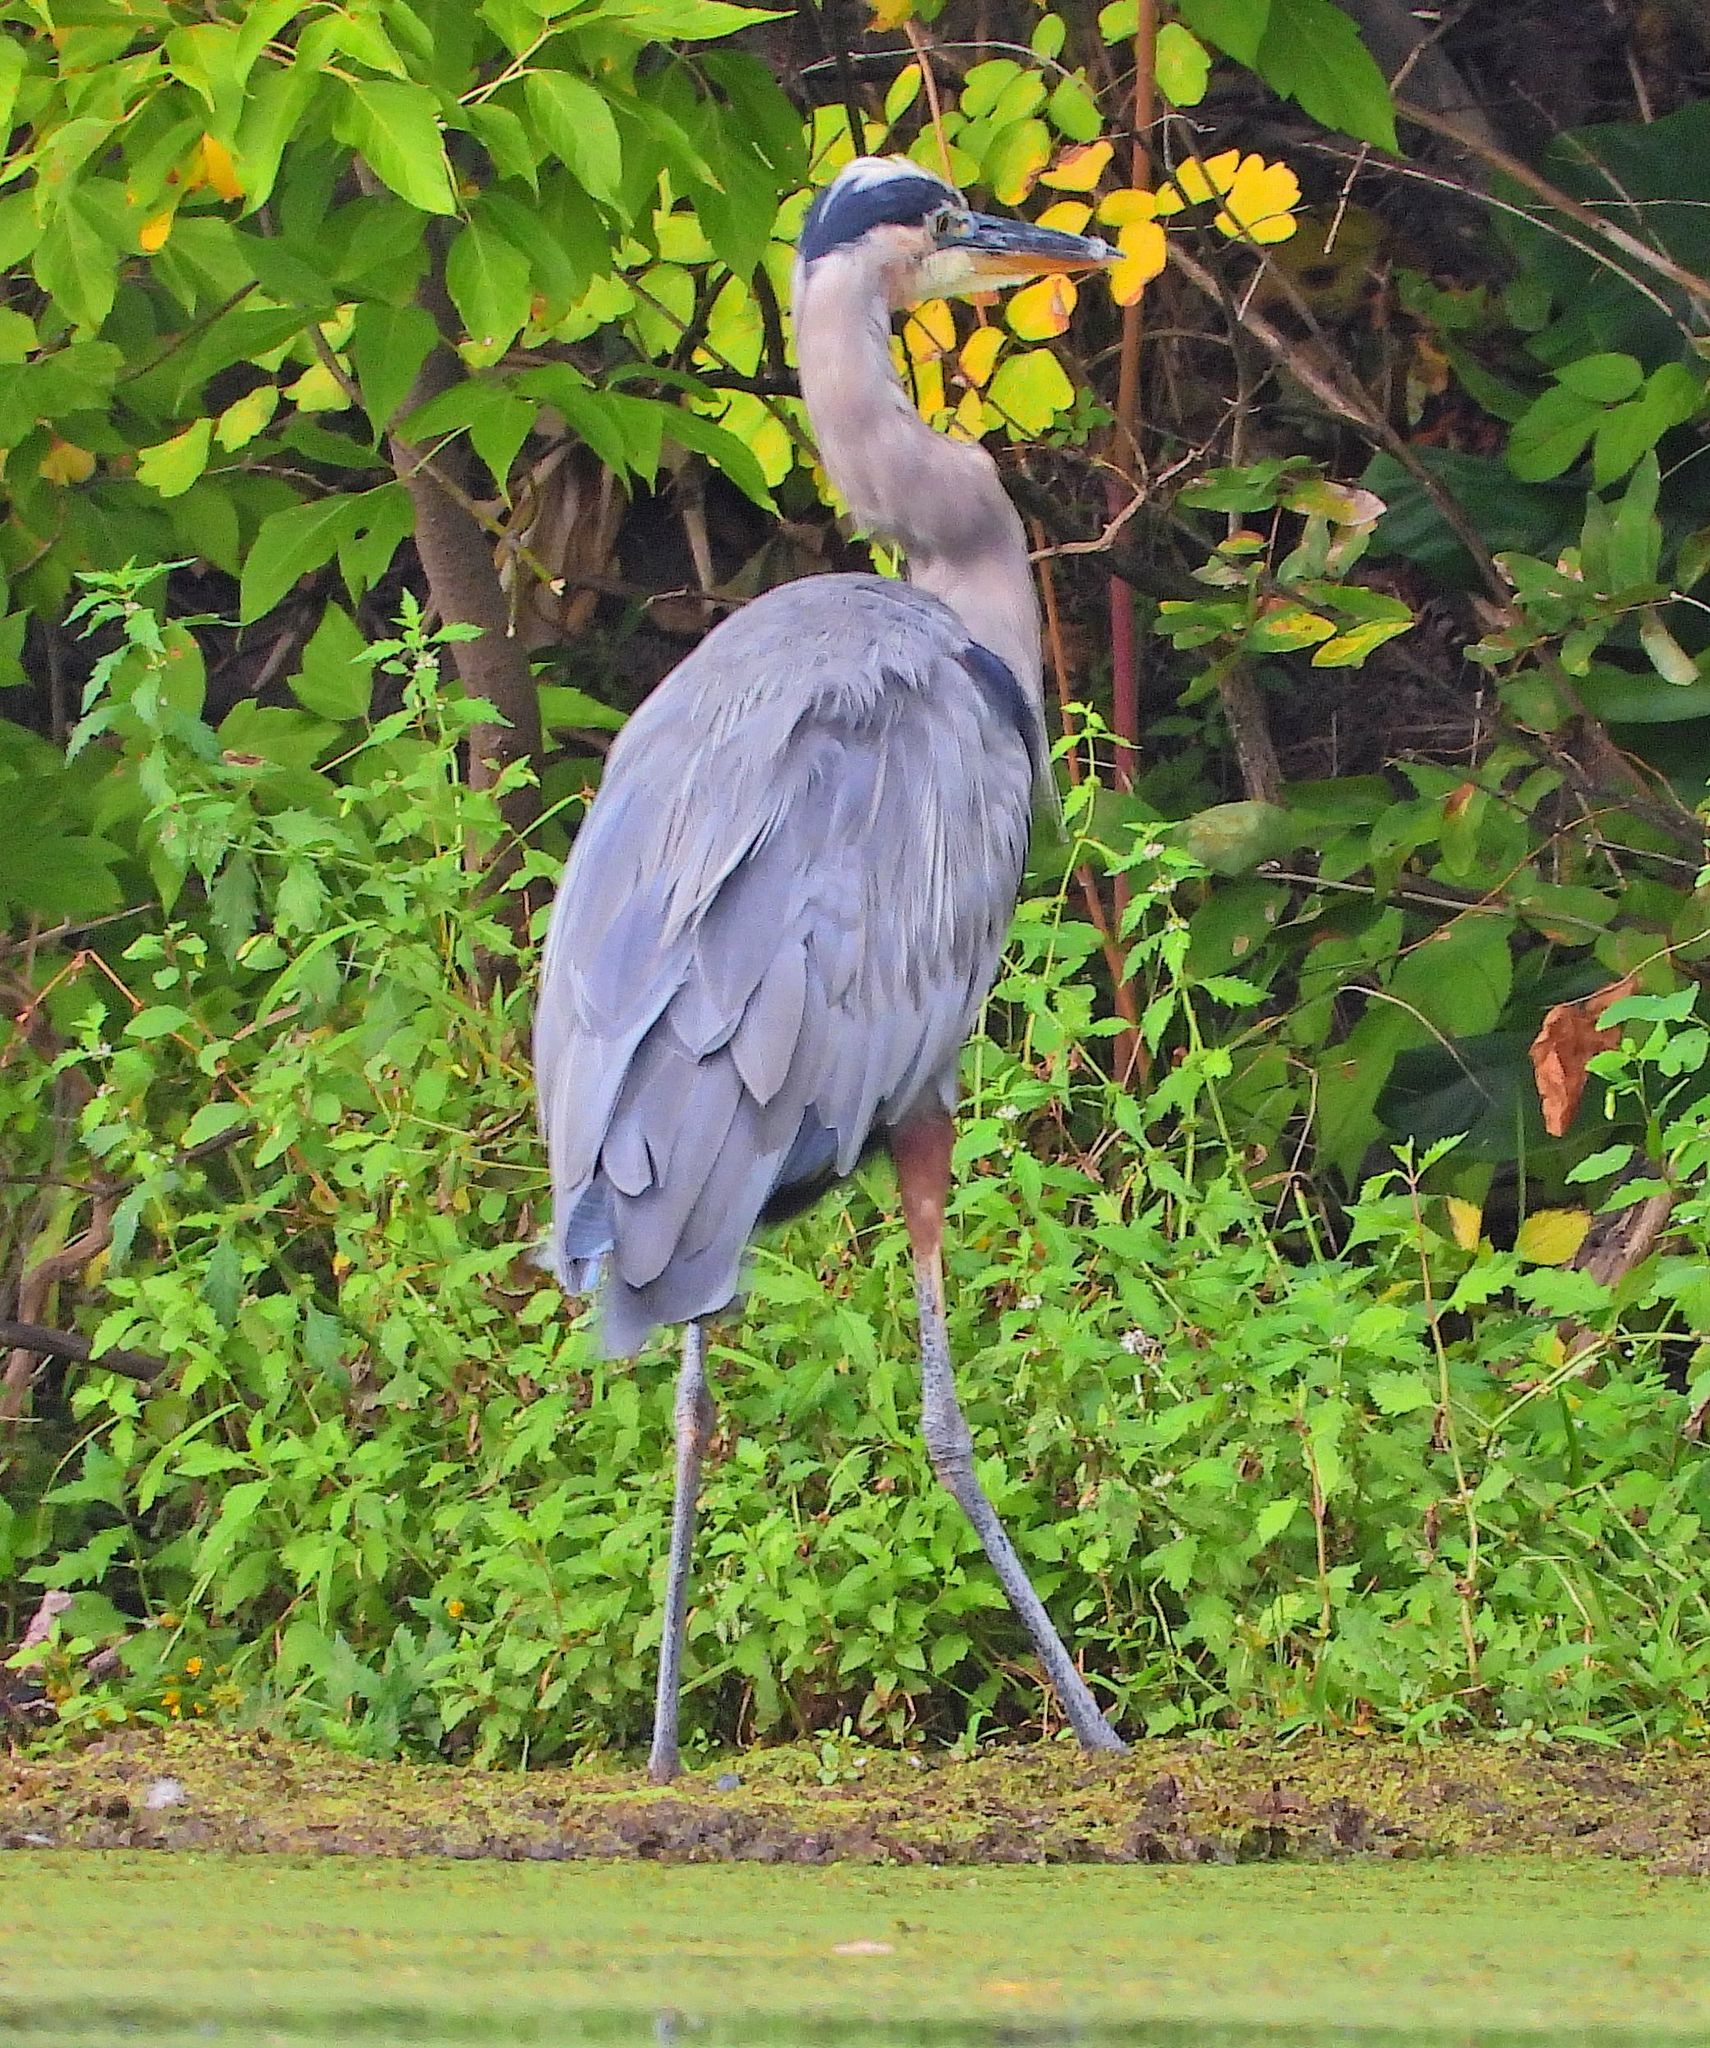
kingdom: Animalia
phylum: Chordata
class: Aves
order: Pelecaniformes
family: Ardeidae
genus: Ardea
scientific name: Ardea herodias
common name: Great blue heron
